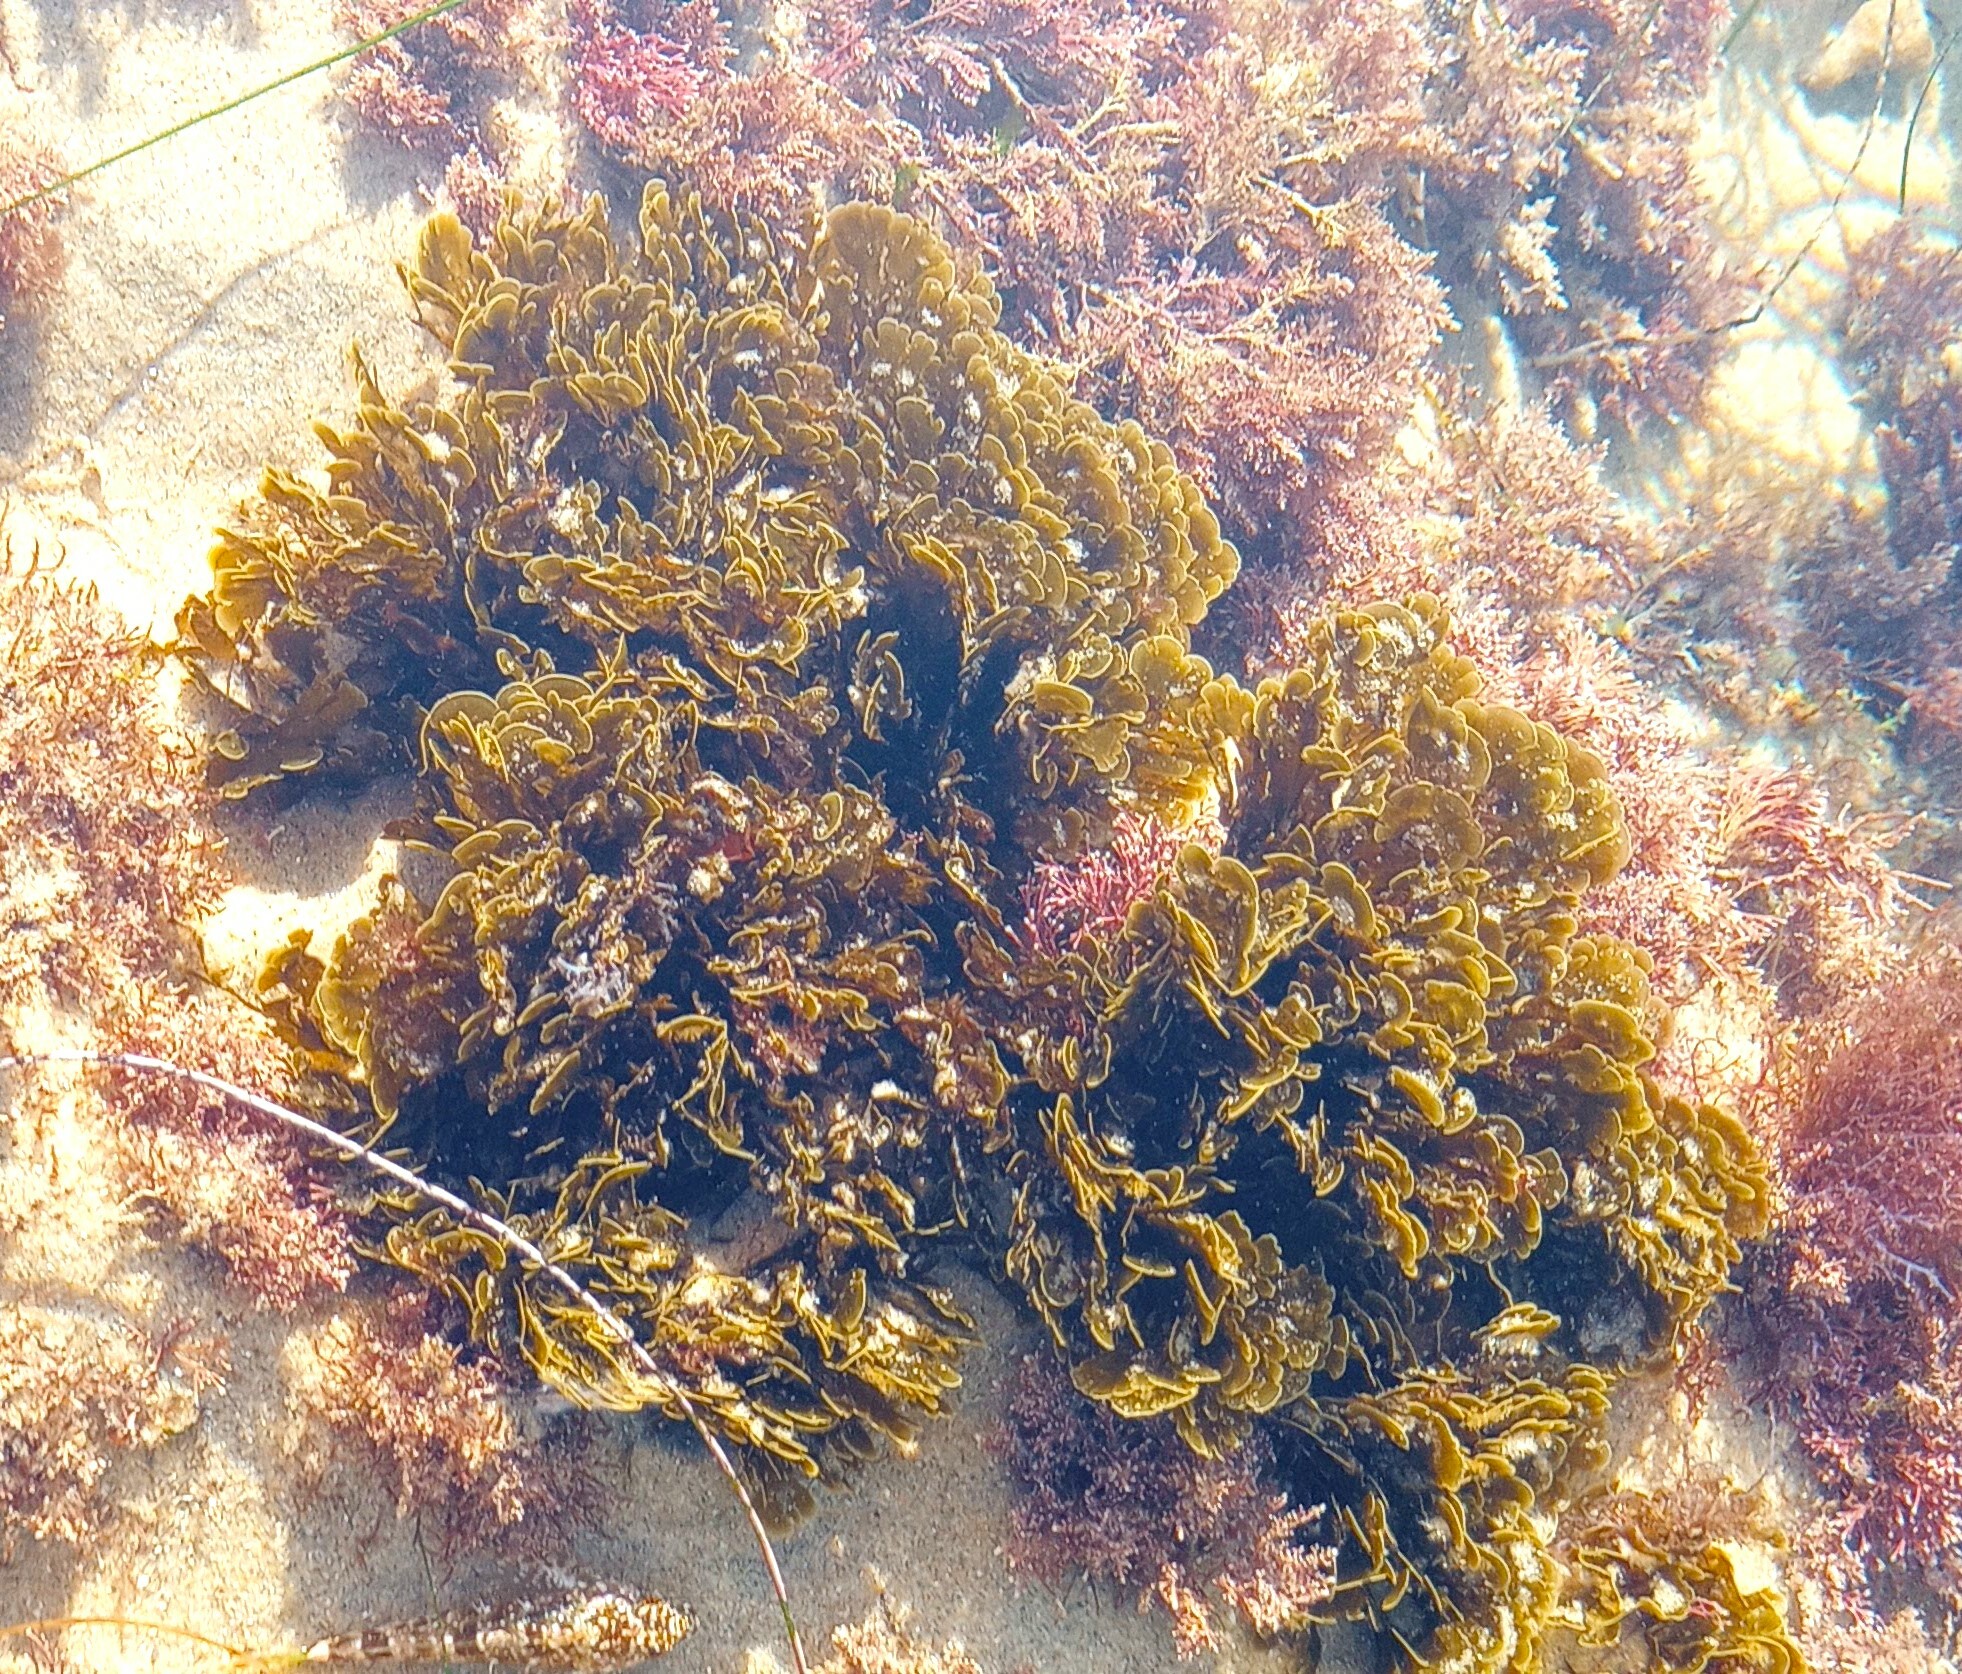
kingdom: Chromista
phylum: Ochrophyta
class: Phaeophyceae
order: Dictyotales
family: Dictyotaceae
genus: Zonaria
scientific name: Zonaria farlowii
